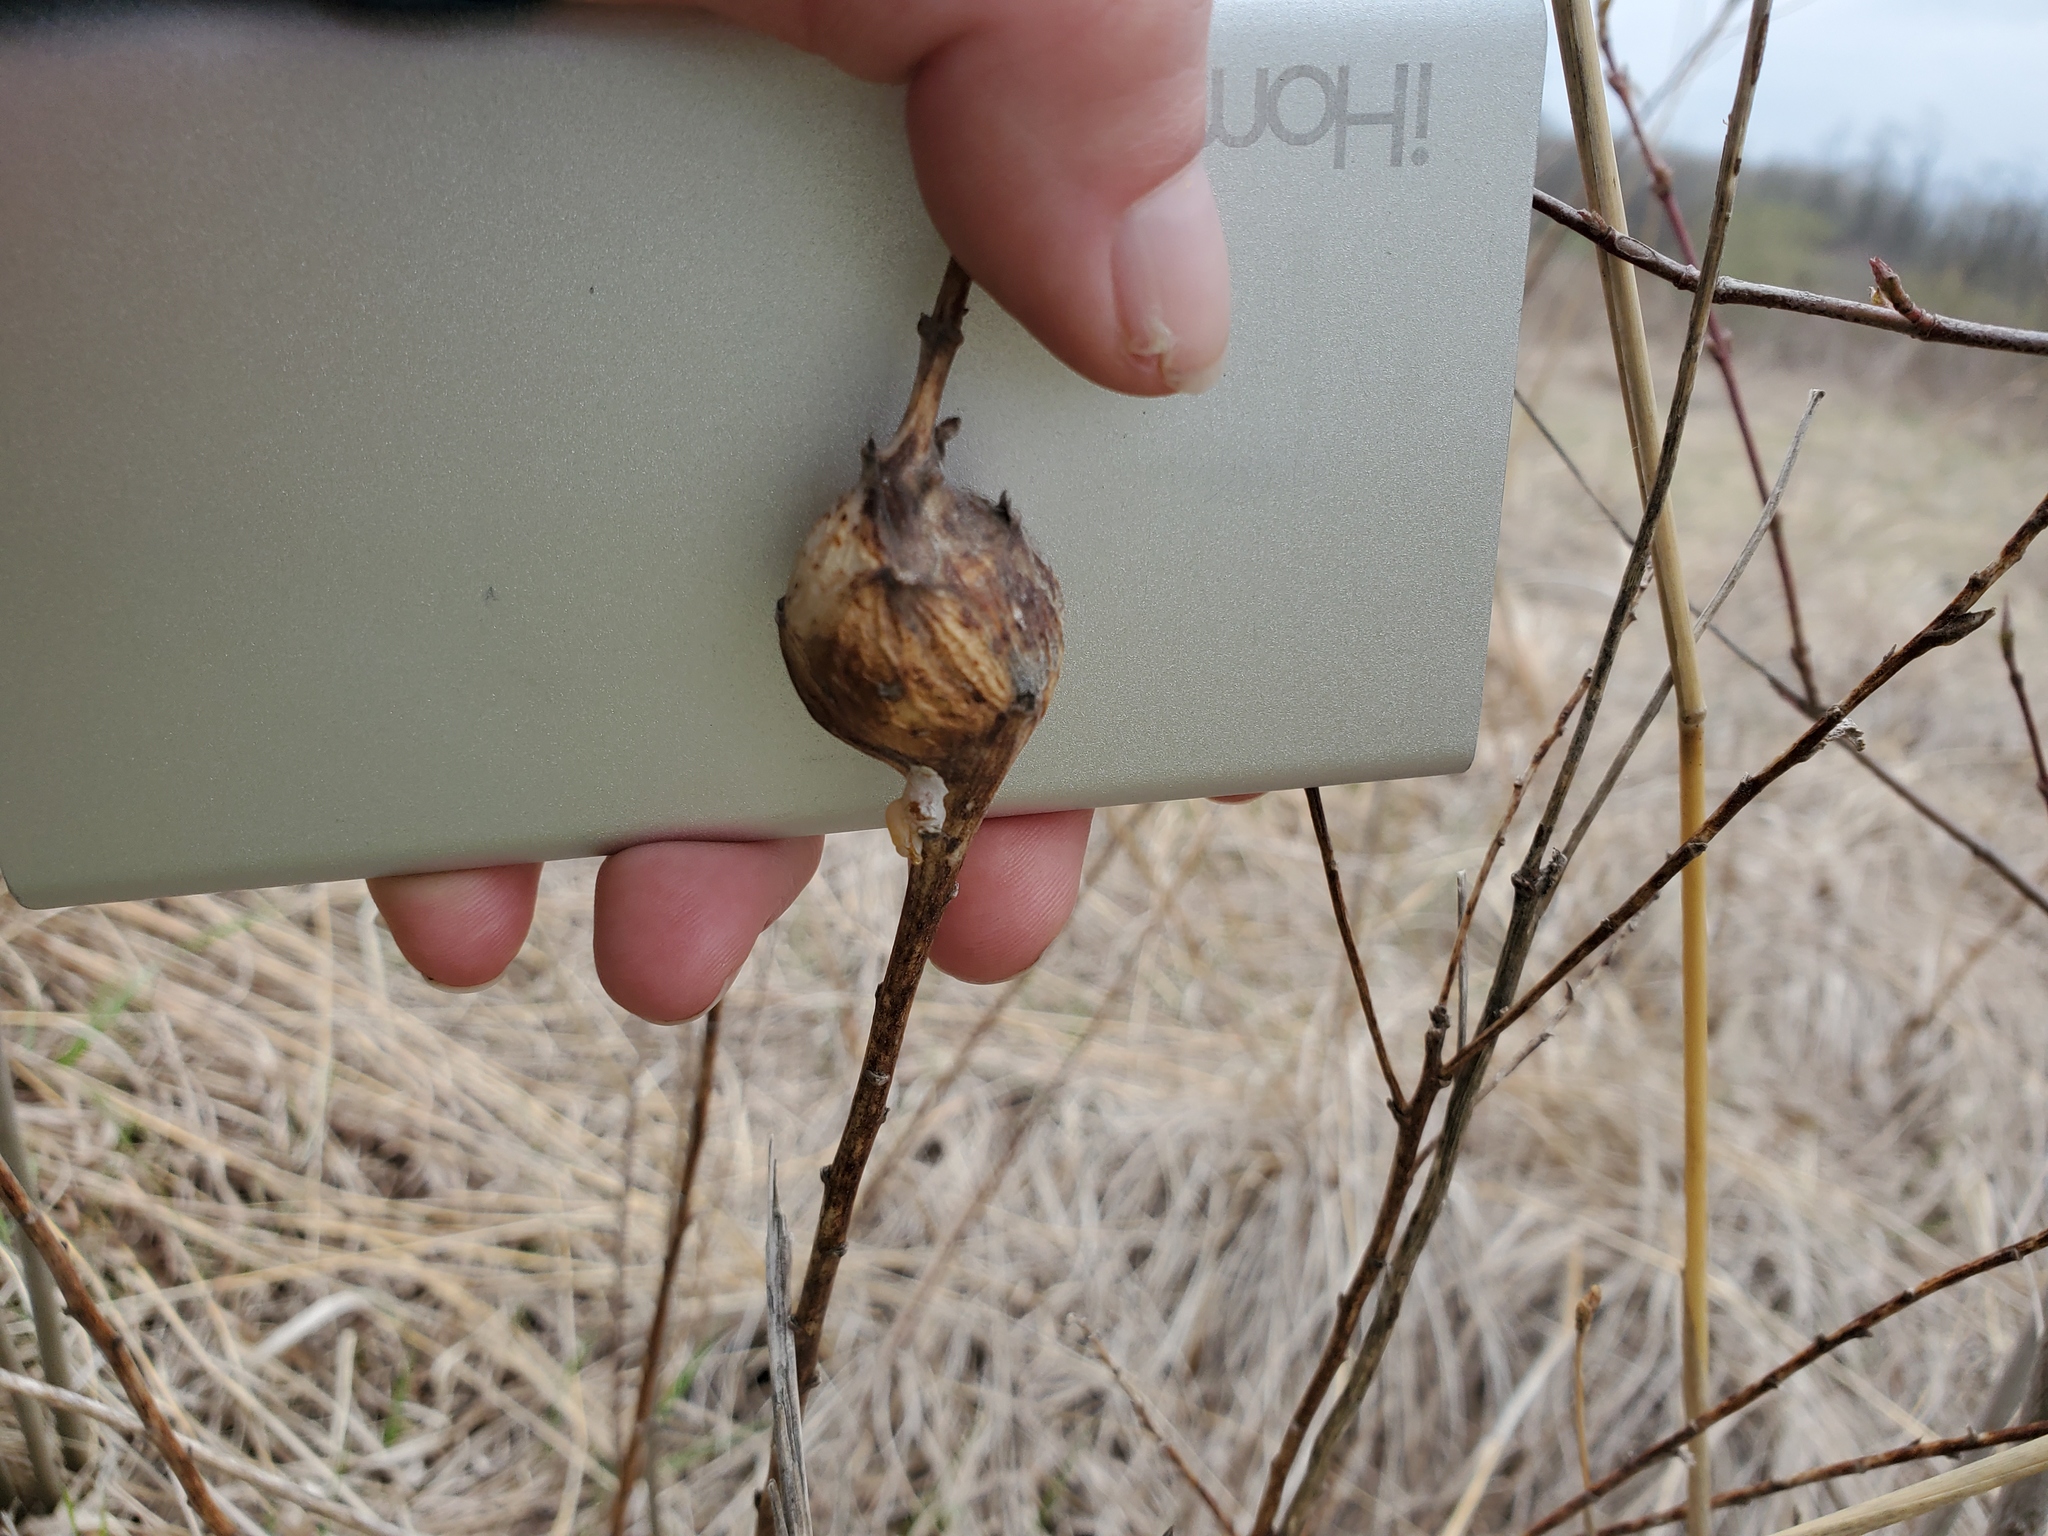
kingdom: Animalia
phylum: Arthropoda
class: Insecta
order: Diptera
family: Tephritidae
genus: Eurosta
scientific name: Eurosta solidaginis
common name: Goldenrod gall fly
